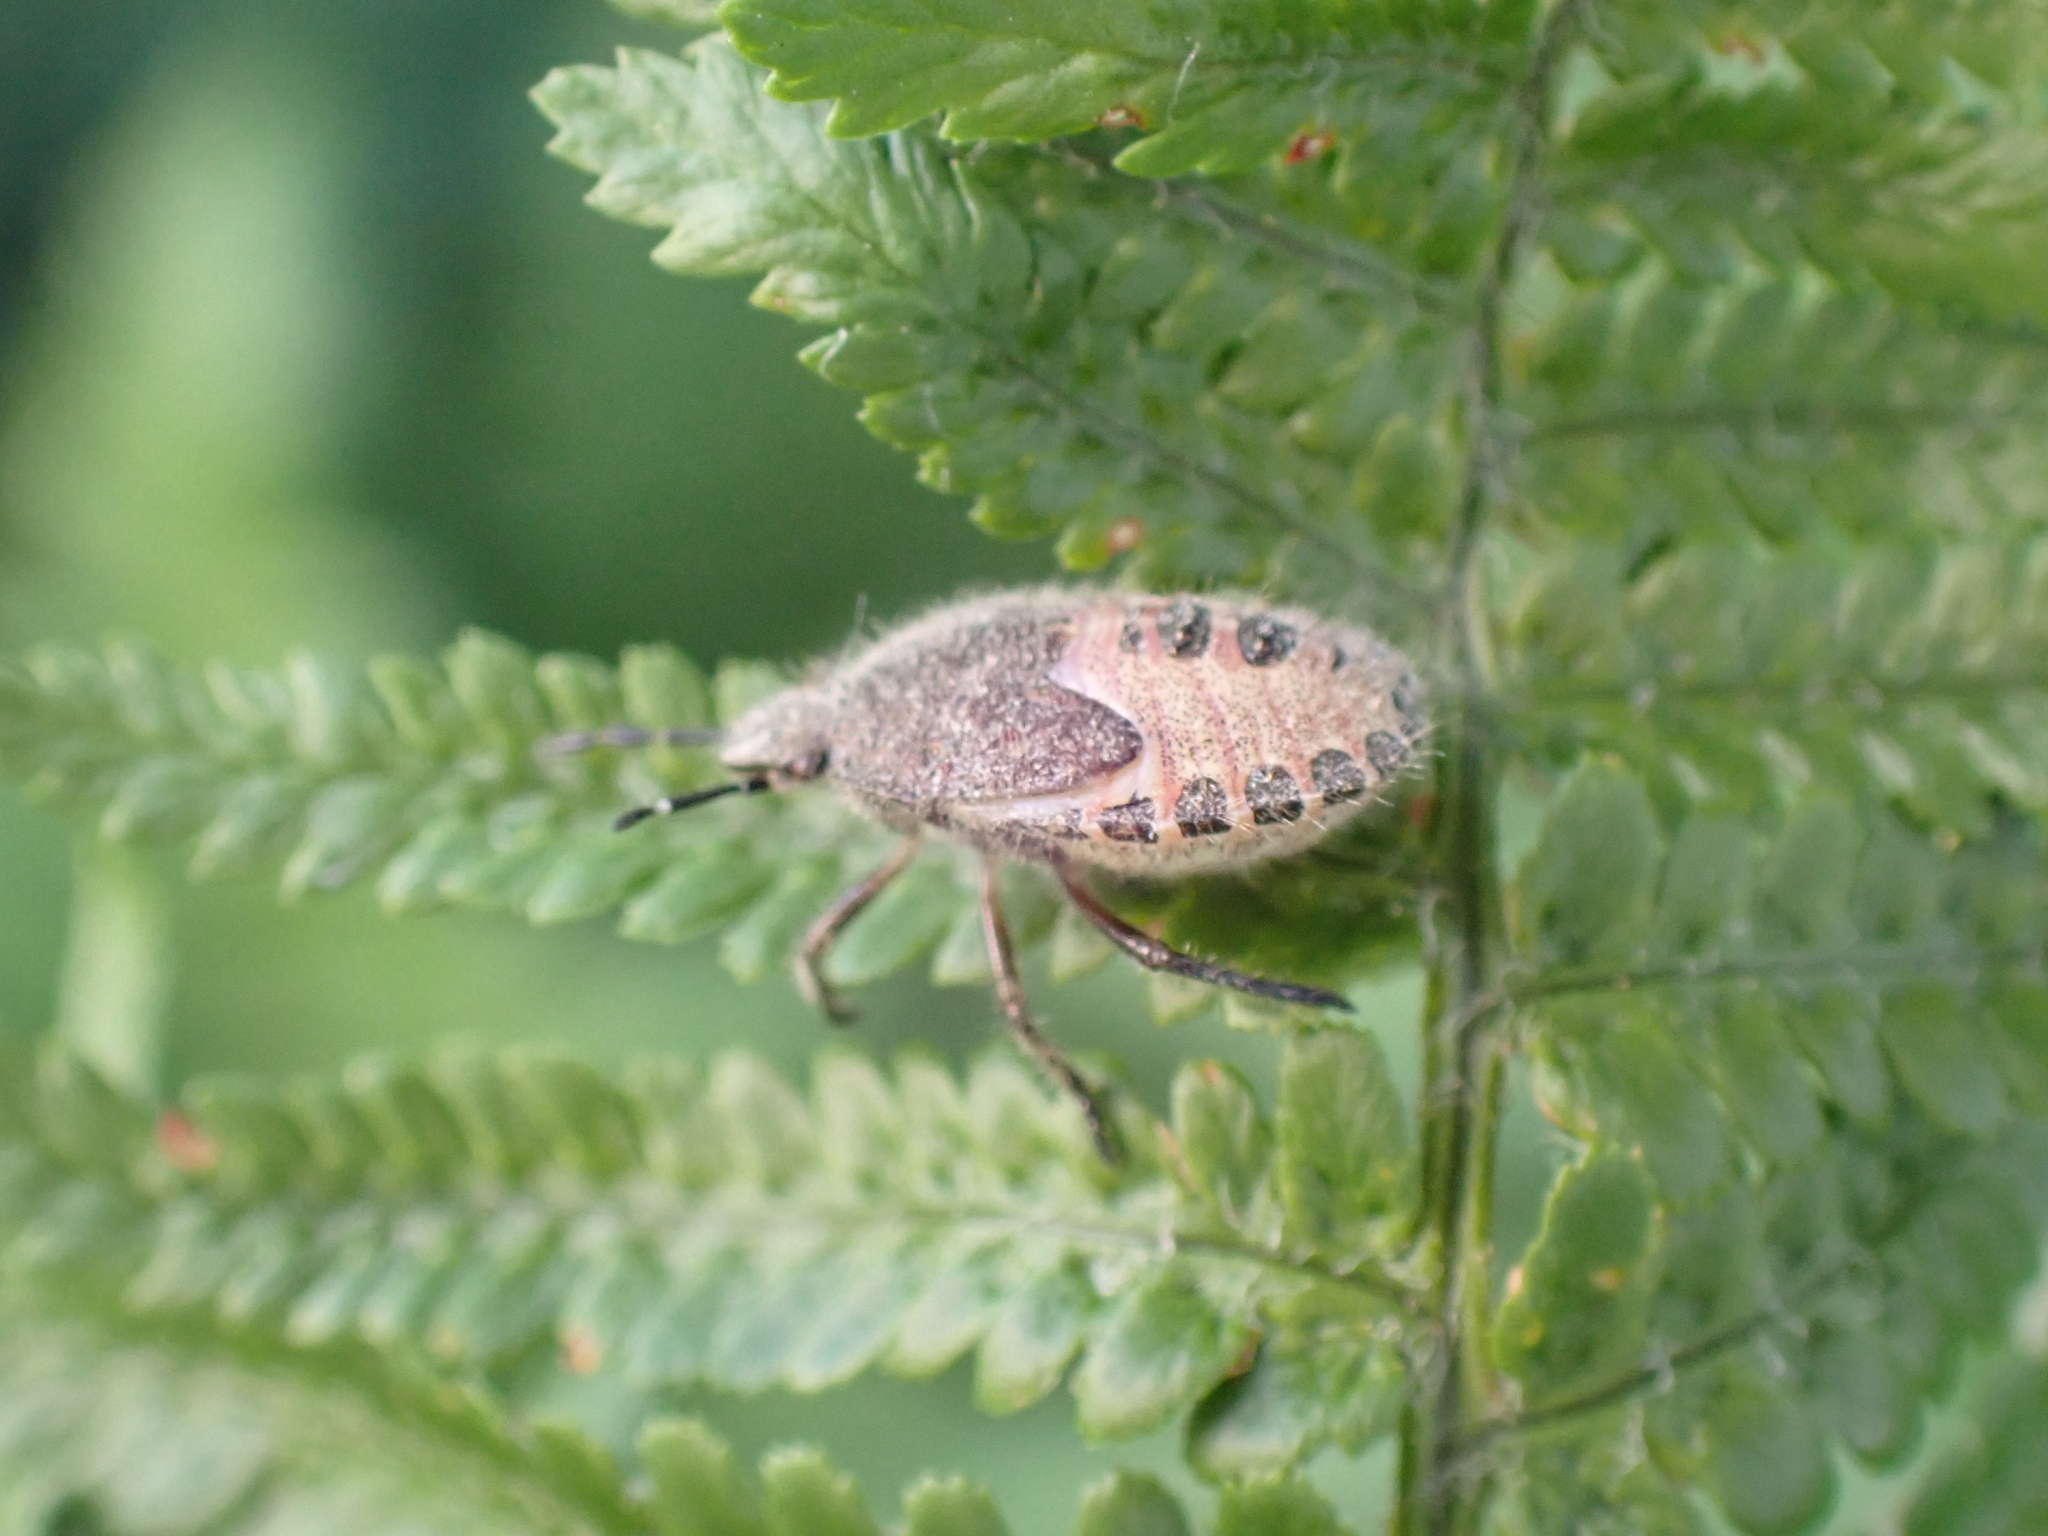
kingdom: Animalia
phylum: Arthropoda
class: Insecta
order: Hemiptera
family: Pentatomidae
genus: Dolycoris
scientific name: Dolycoris baccarum
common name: Sloe bug
